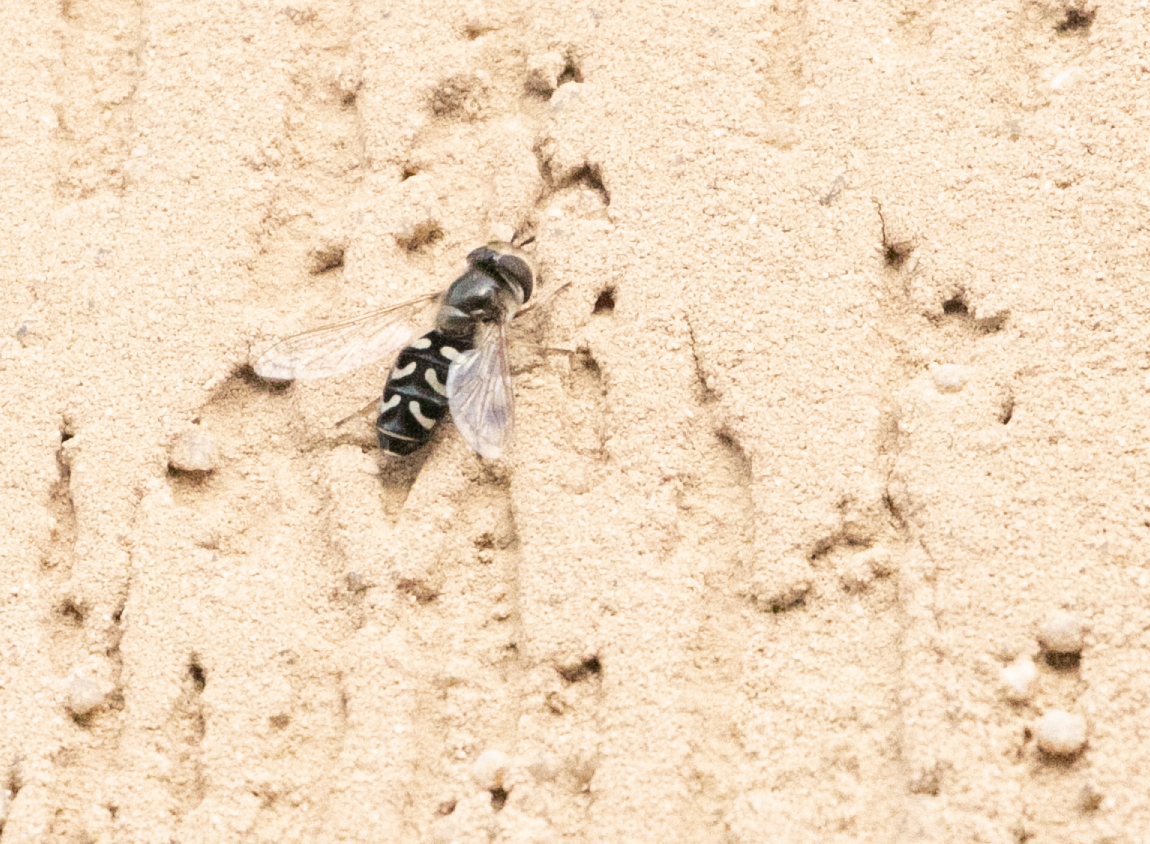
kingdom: Animalia
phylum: Arthropoda
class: Insecta
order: Diptera
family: Syrphidae
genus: Scaeva
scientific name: Scaeva pyrastri
